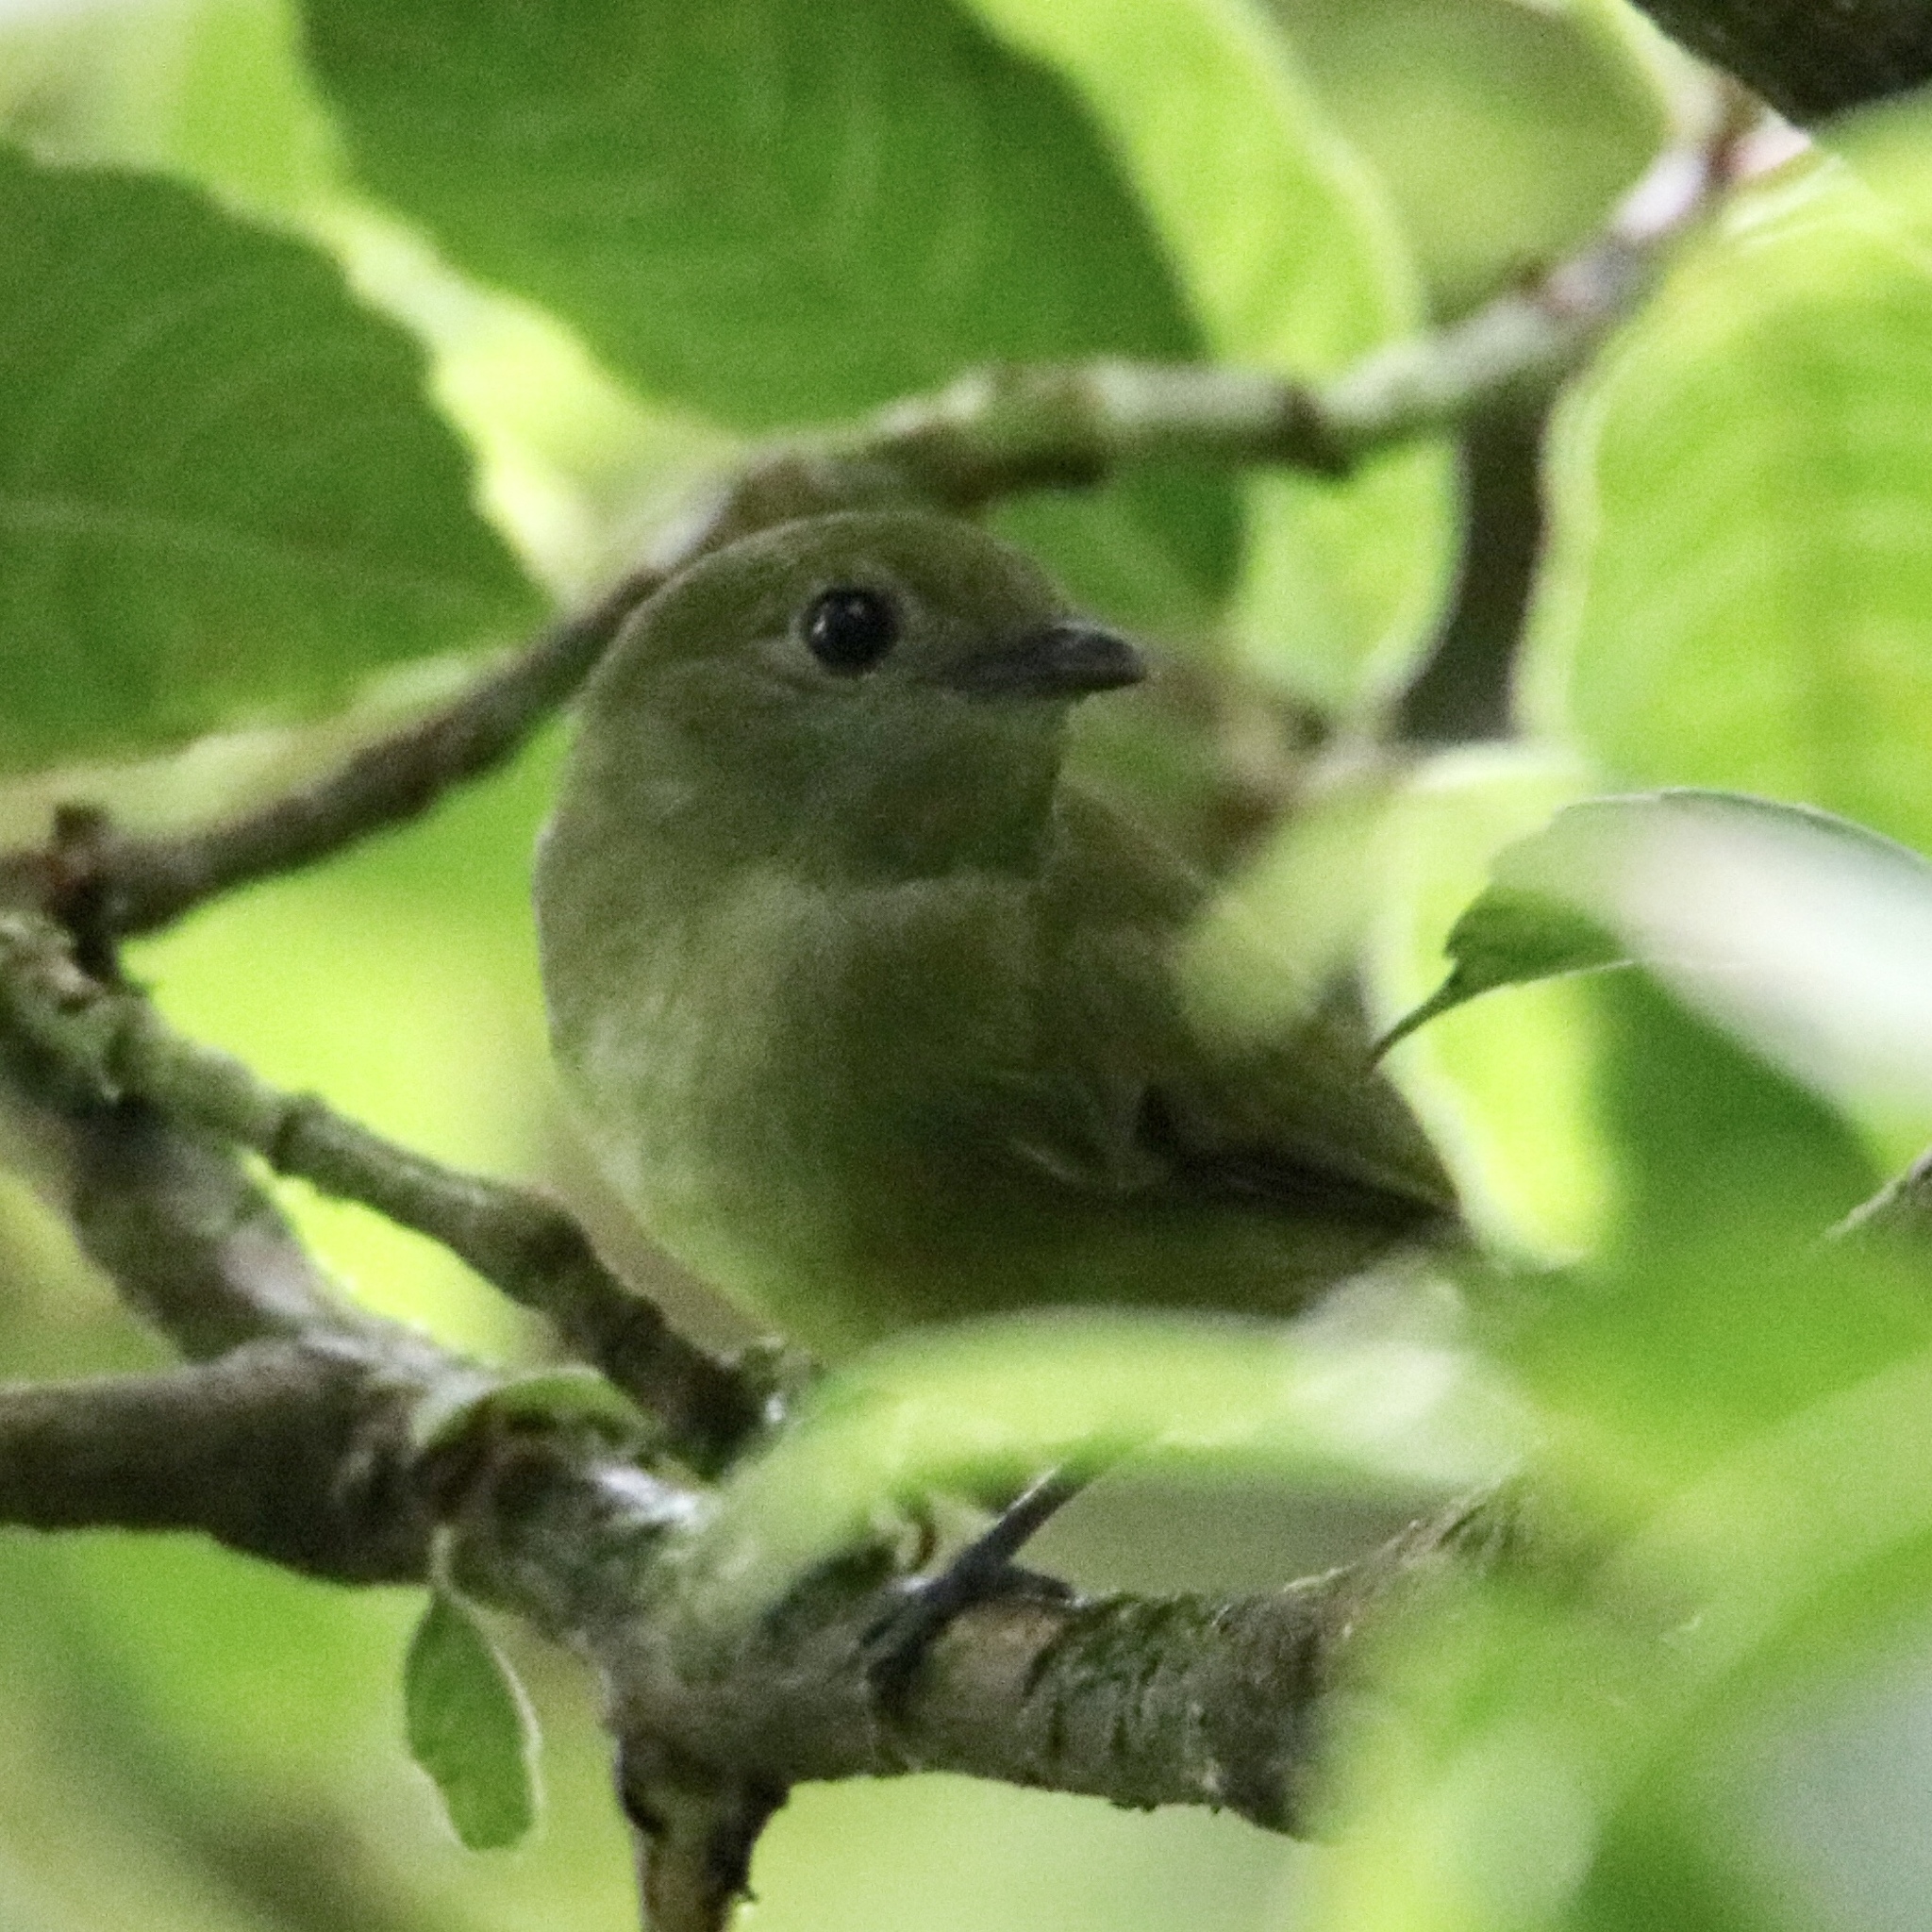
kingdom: Animalia
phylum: Chordata
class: Aves
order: Passeriformes
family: Pipridae
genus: Corapipo
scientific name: Corapipo altera
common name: White-ruffed manakin
